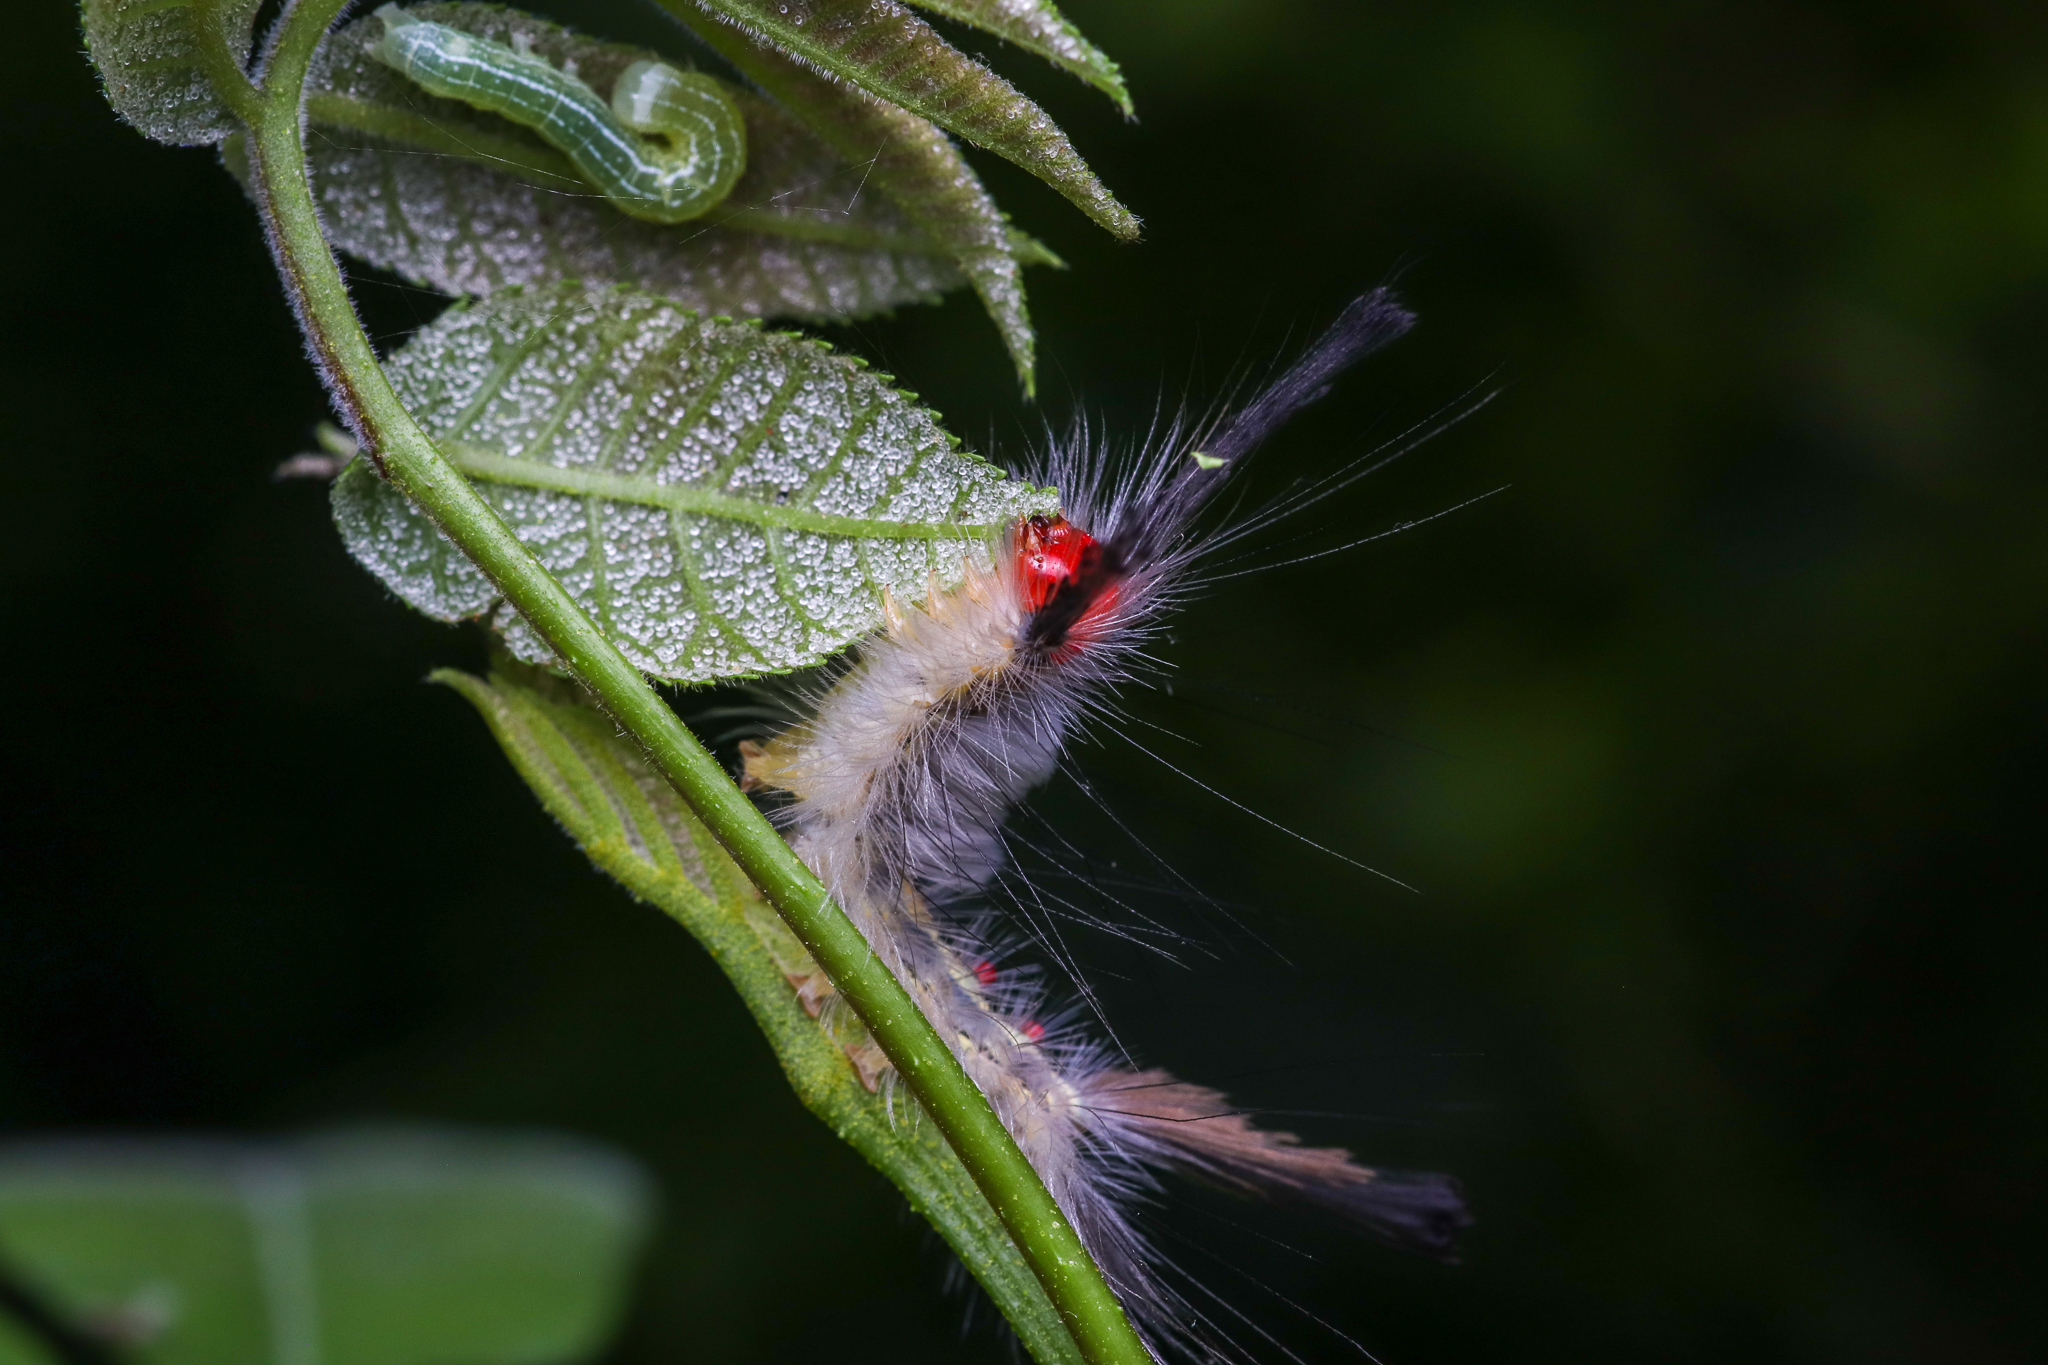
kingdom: Animalia
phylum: Arthropoda
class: Insecta
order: Lepidoptera
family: Erebidae
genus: Orgyia
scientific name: Orgyia leucostigma
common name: White-marked tussock moth
